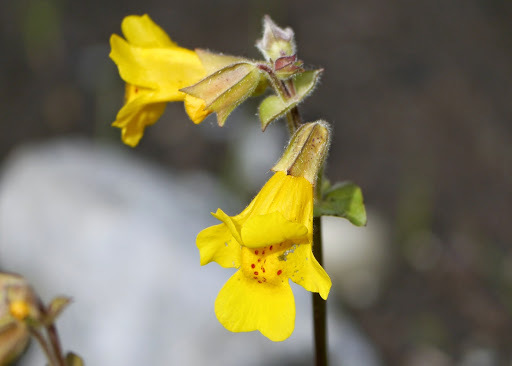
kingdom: Plantae
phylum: Tracheophyta
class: Magnoliopsida
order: Lamiales
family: Phrymaceae
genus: Erythranthe
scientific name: Erythranthe guttata
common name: Monkeyflower
